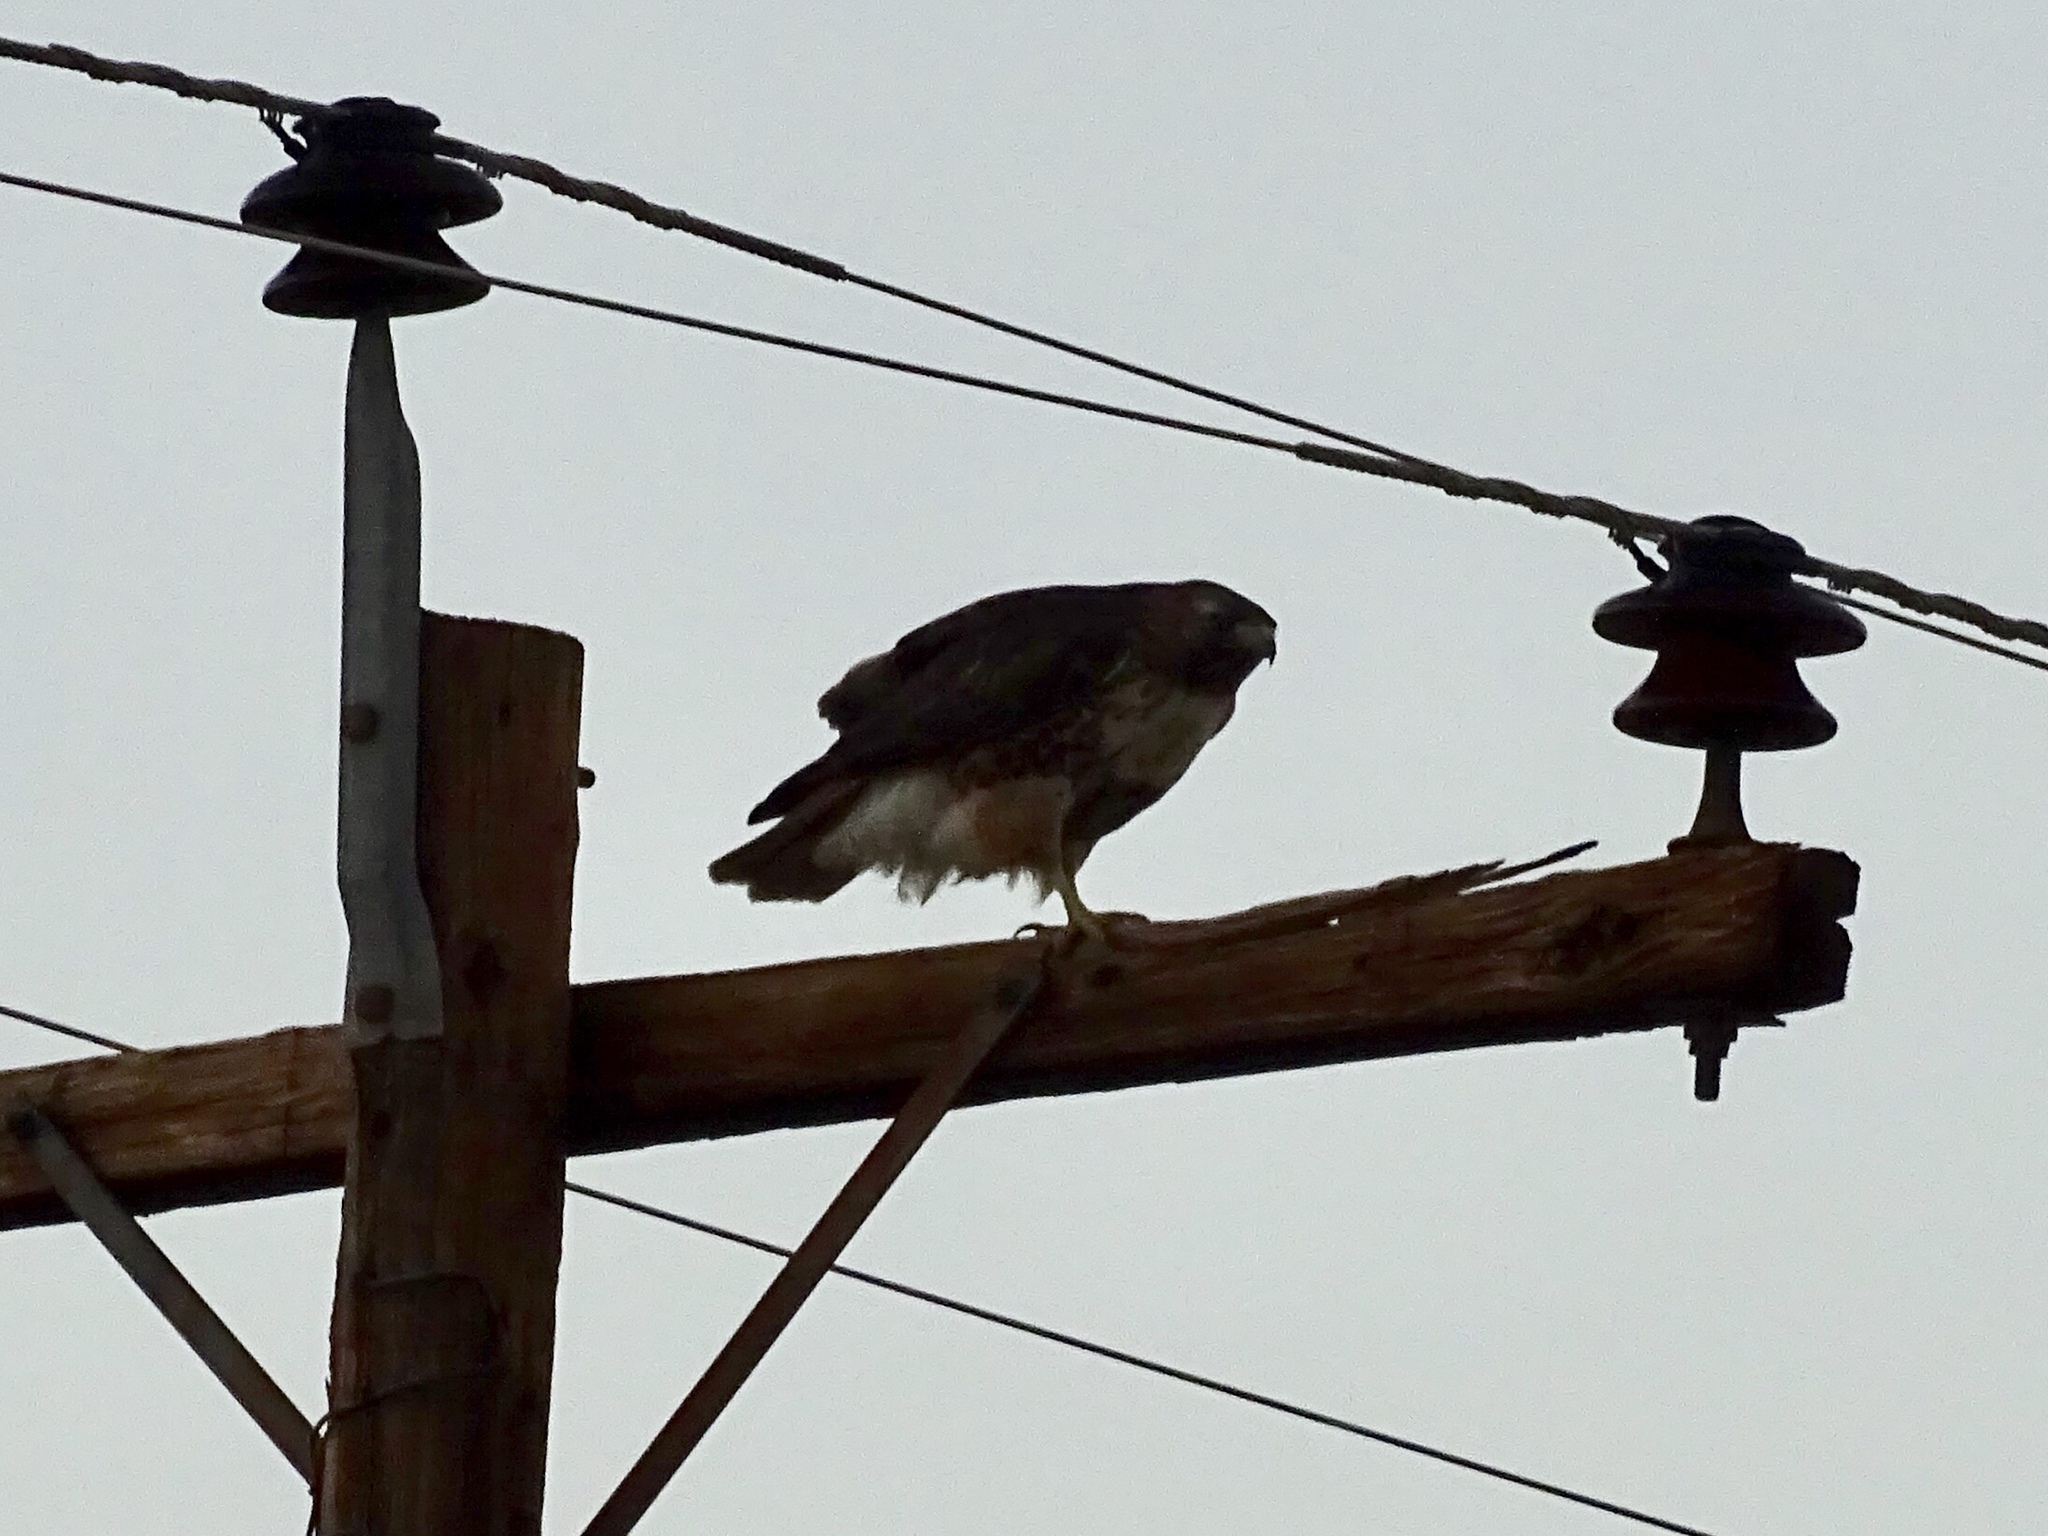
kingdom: Animalia
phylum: Chordata
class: Aves
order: Accipitriformes
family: Accipitridae
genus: Buteo
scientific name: Buteo jamaicensis
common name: Red-tailed hawk
